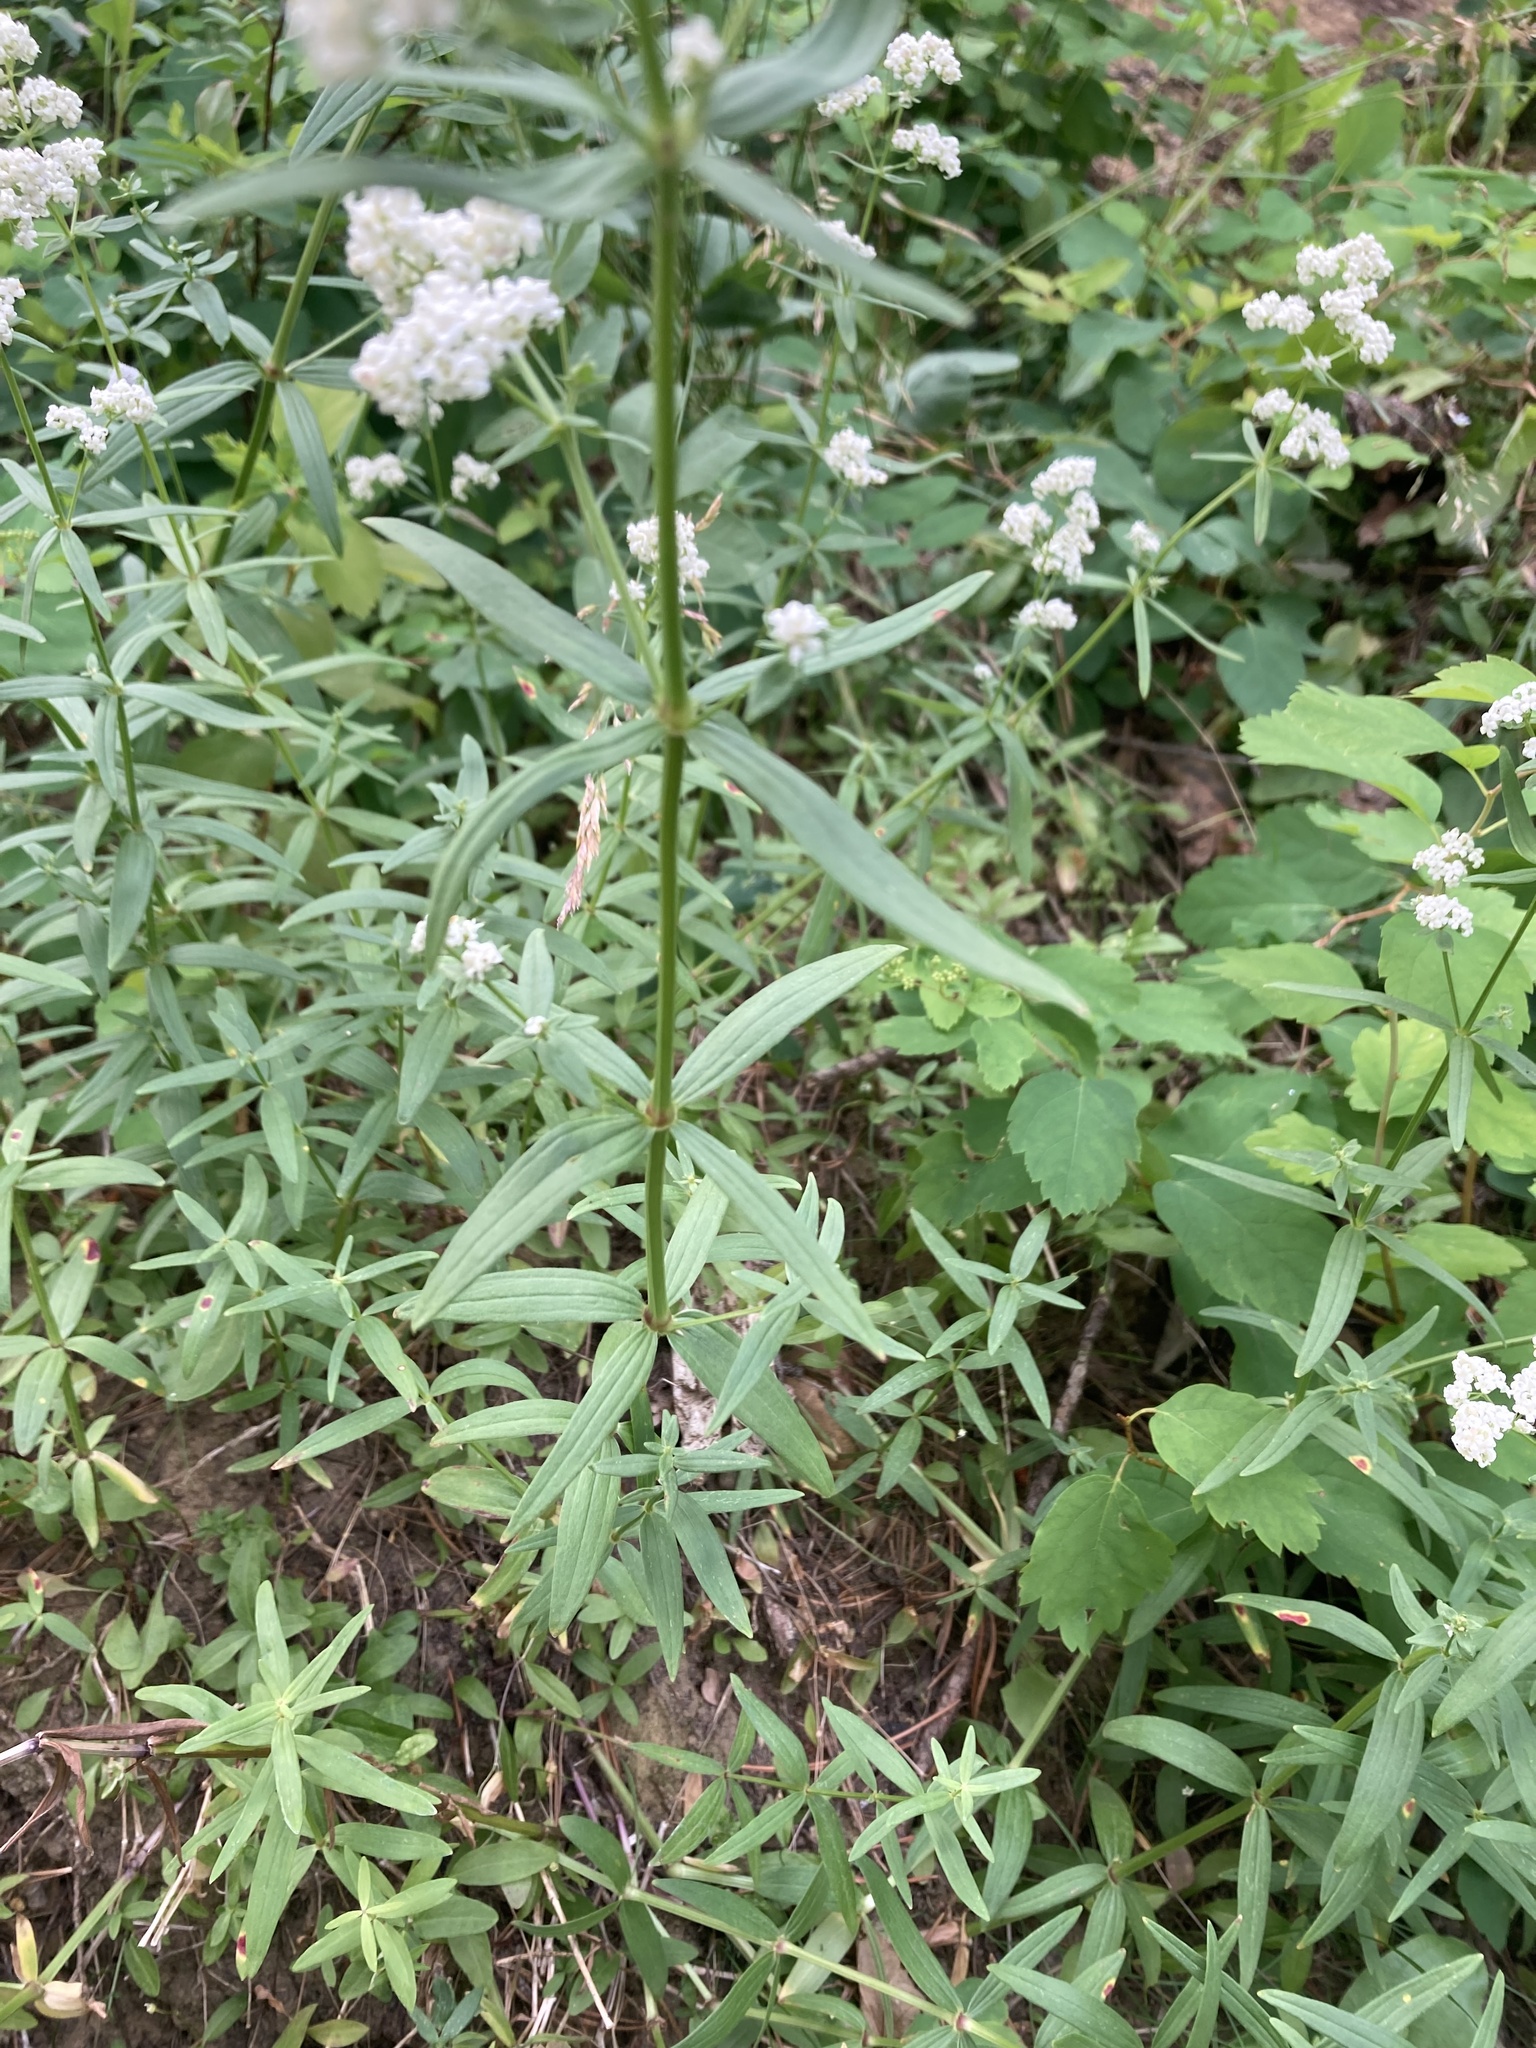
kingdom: Plantae
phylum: Tracheophyta
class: Magnoliopsida
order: Gentianales
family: Rubiaceae
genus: Galium
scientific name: Galium boreale
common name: Northern bedstraw
